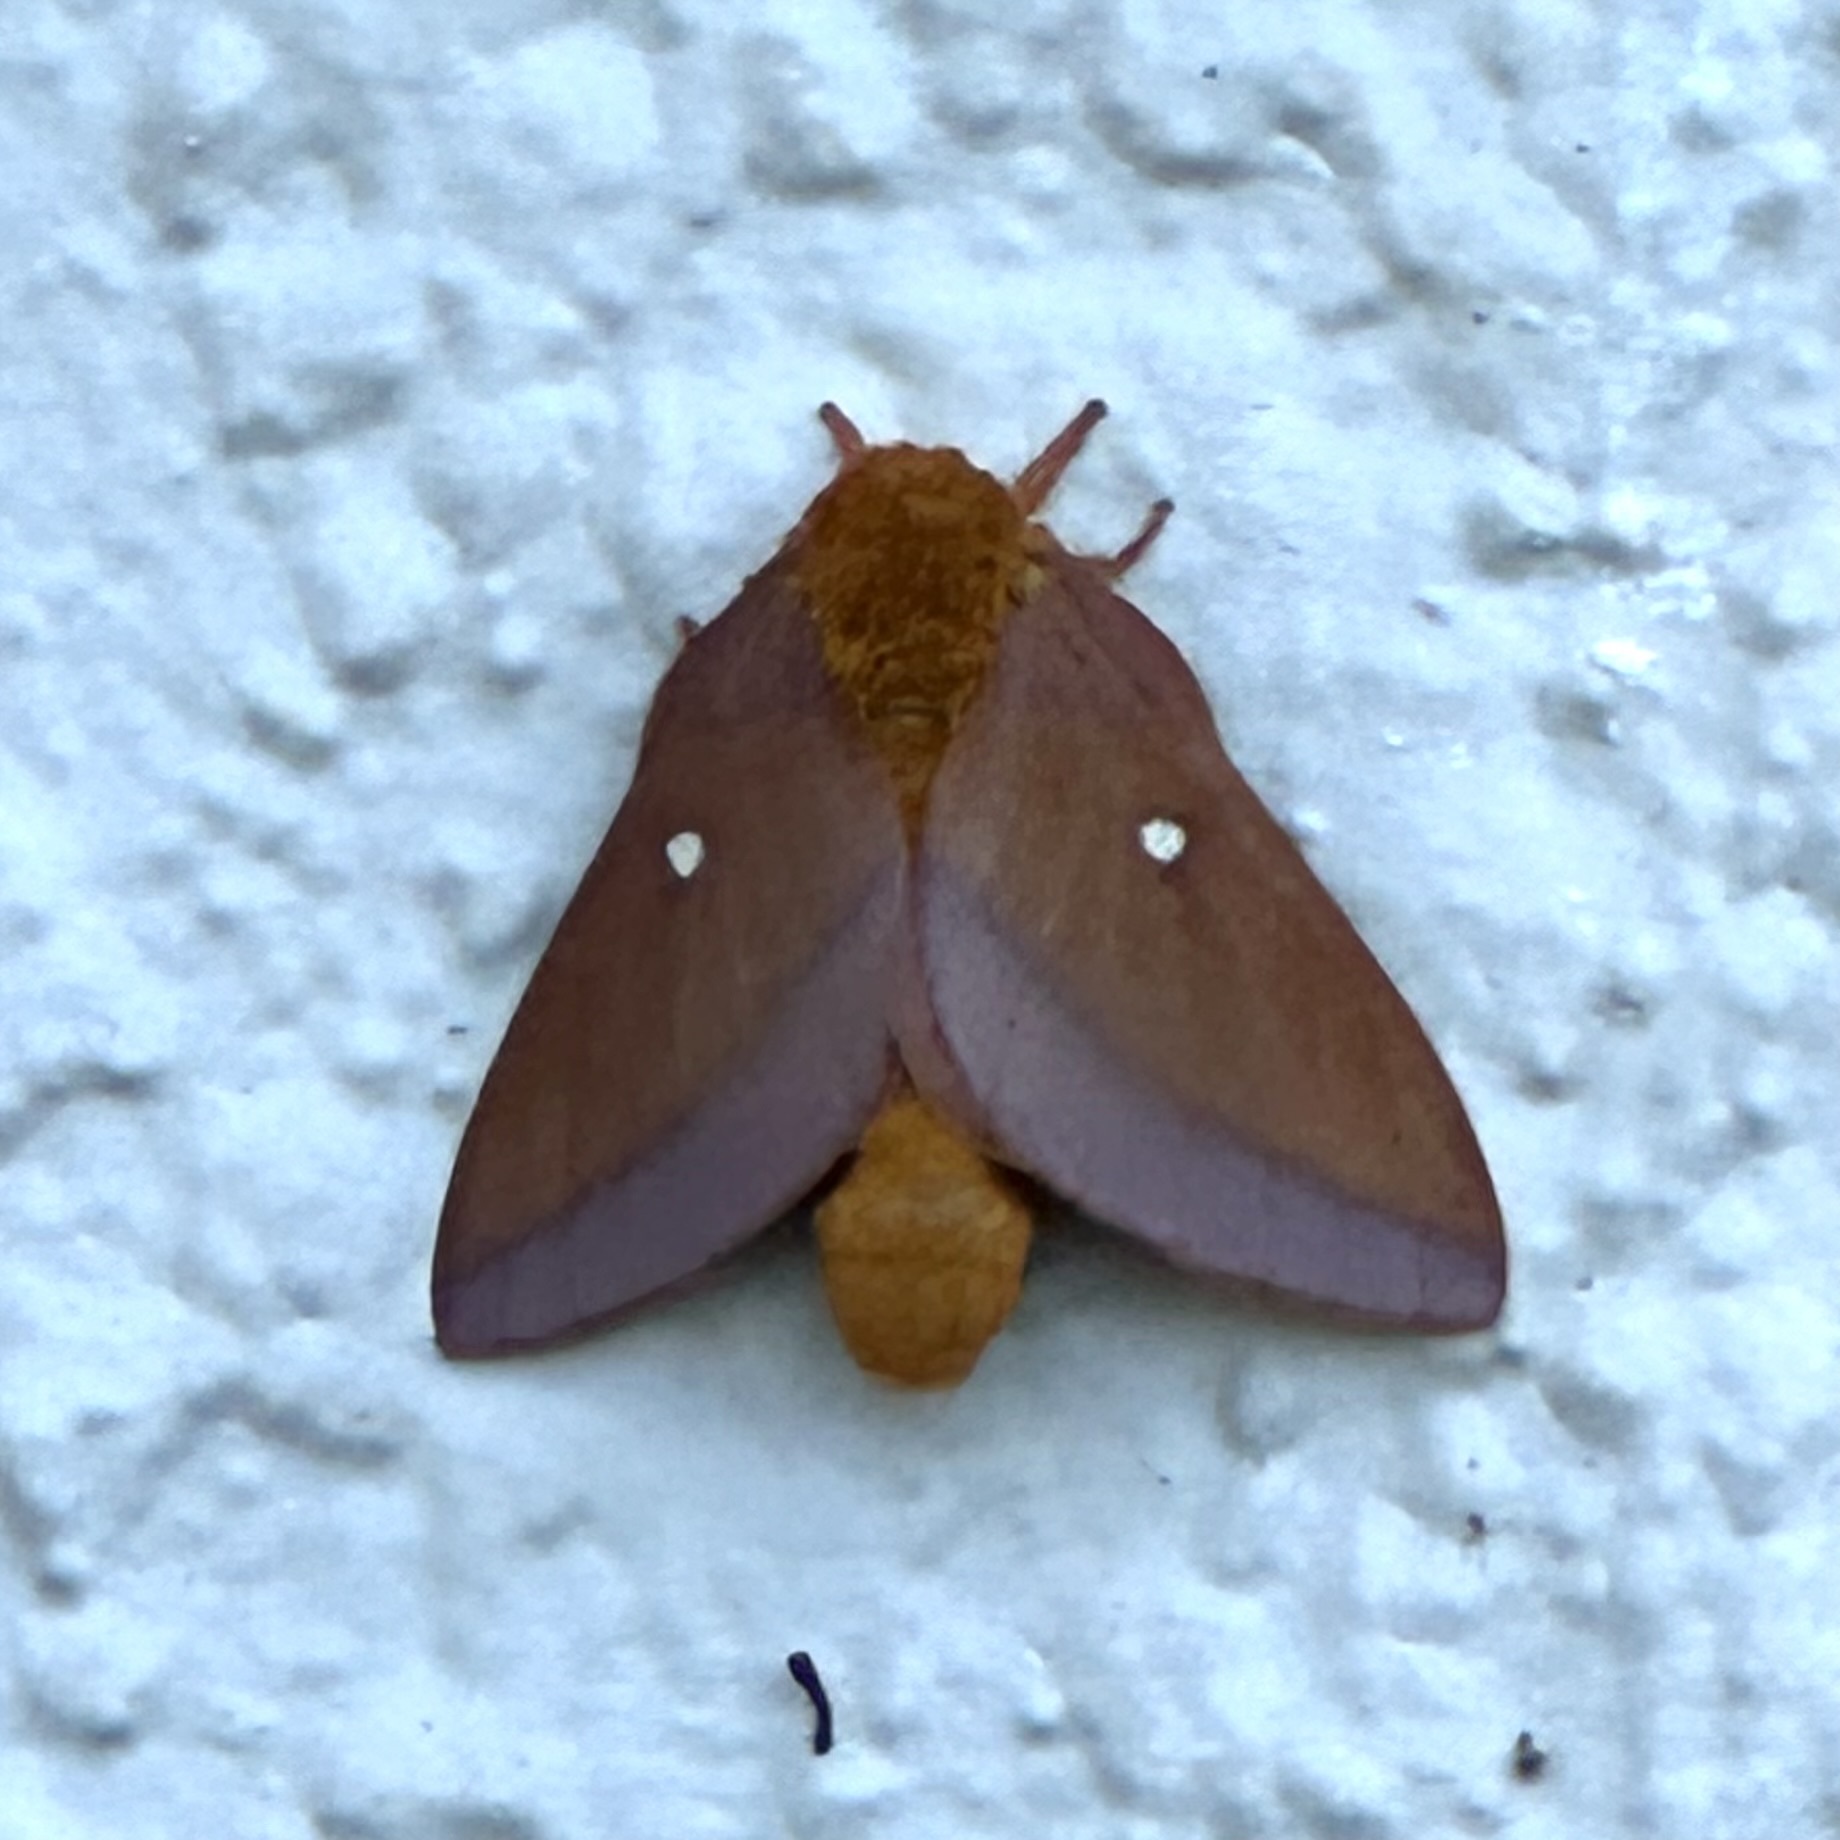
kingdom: Animalia
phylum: Arthropoda
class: Insecta
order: Lepidoptera
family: Saturniidae
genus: Anisota
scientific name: Anisota virginiensis
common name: Pink striped oakworm moth
